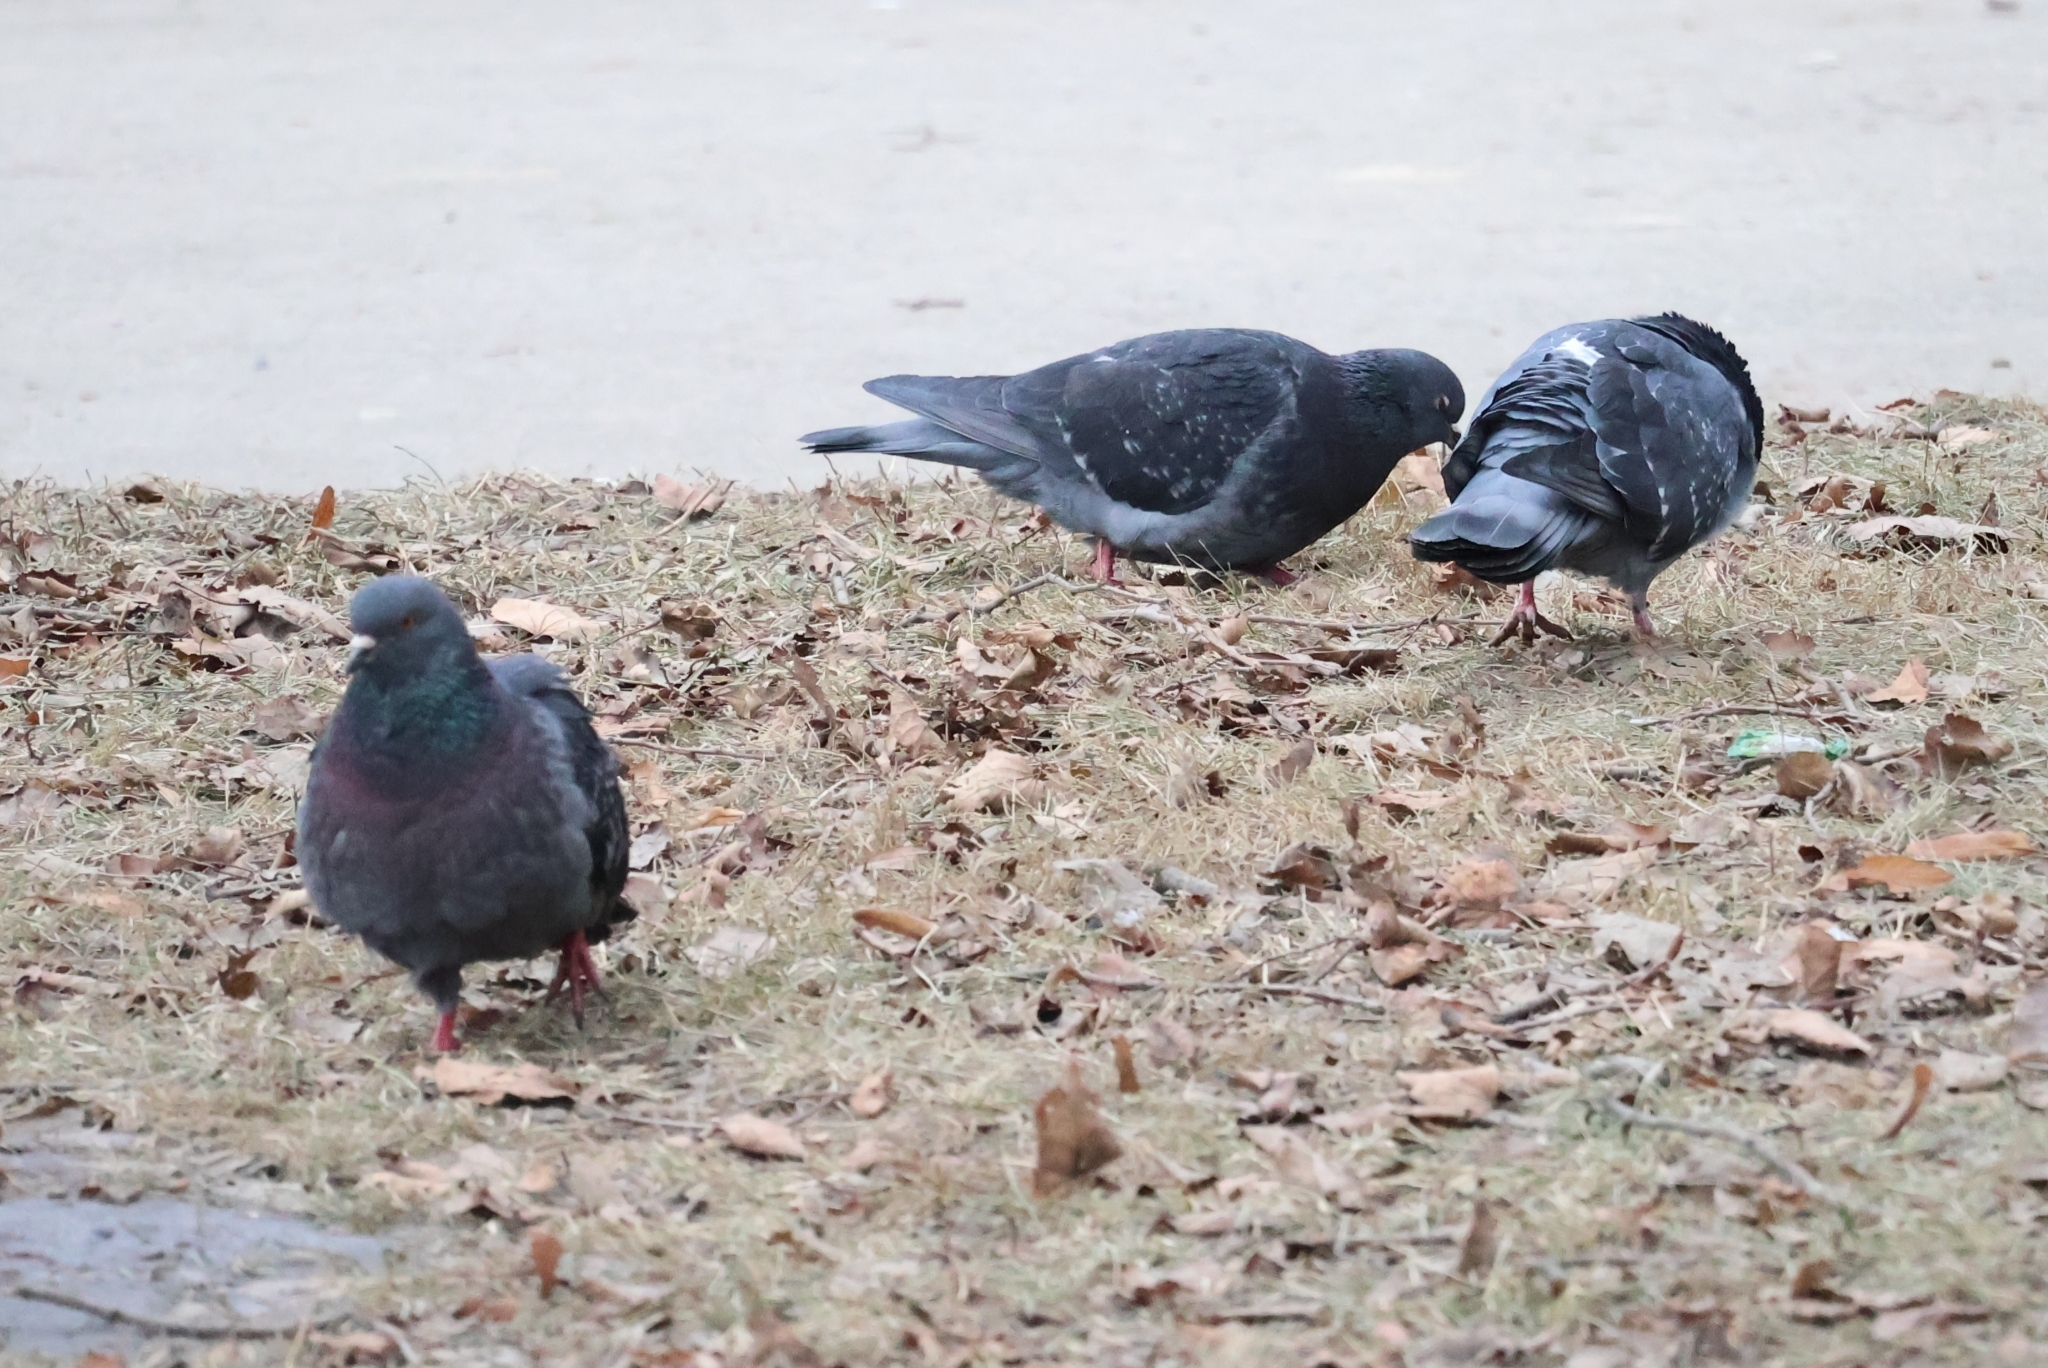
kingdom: Animalia
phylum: Chordata
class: Aves
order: Columbiformes
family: Columbidae
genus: Columba
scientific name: Columba livia
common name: Rock pigeon
